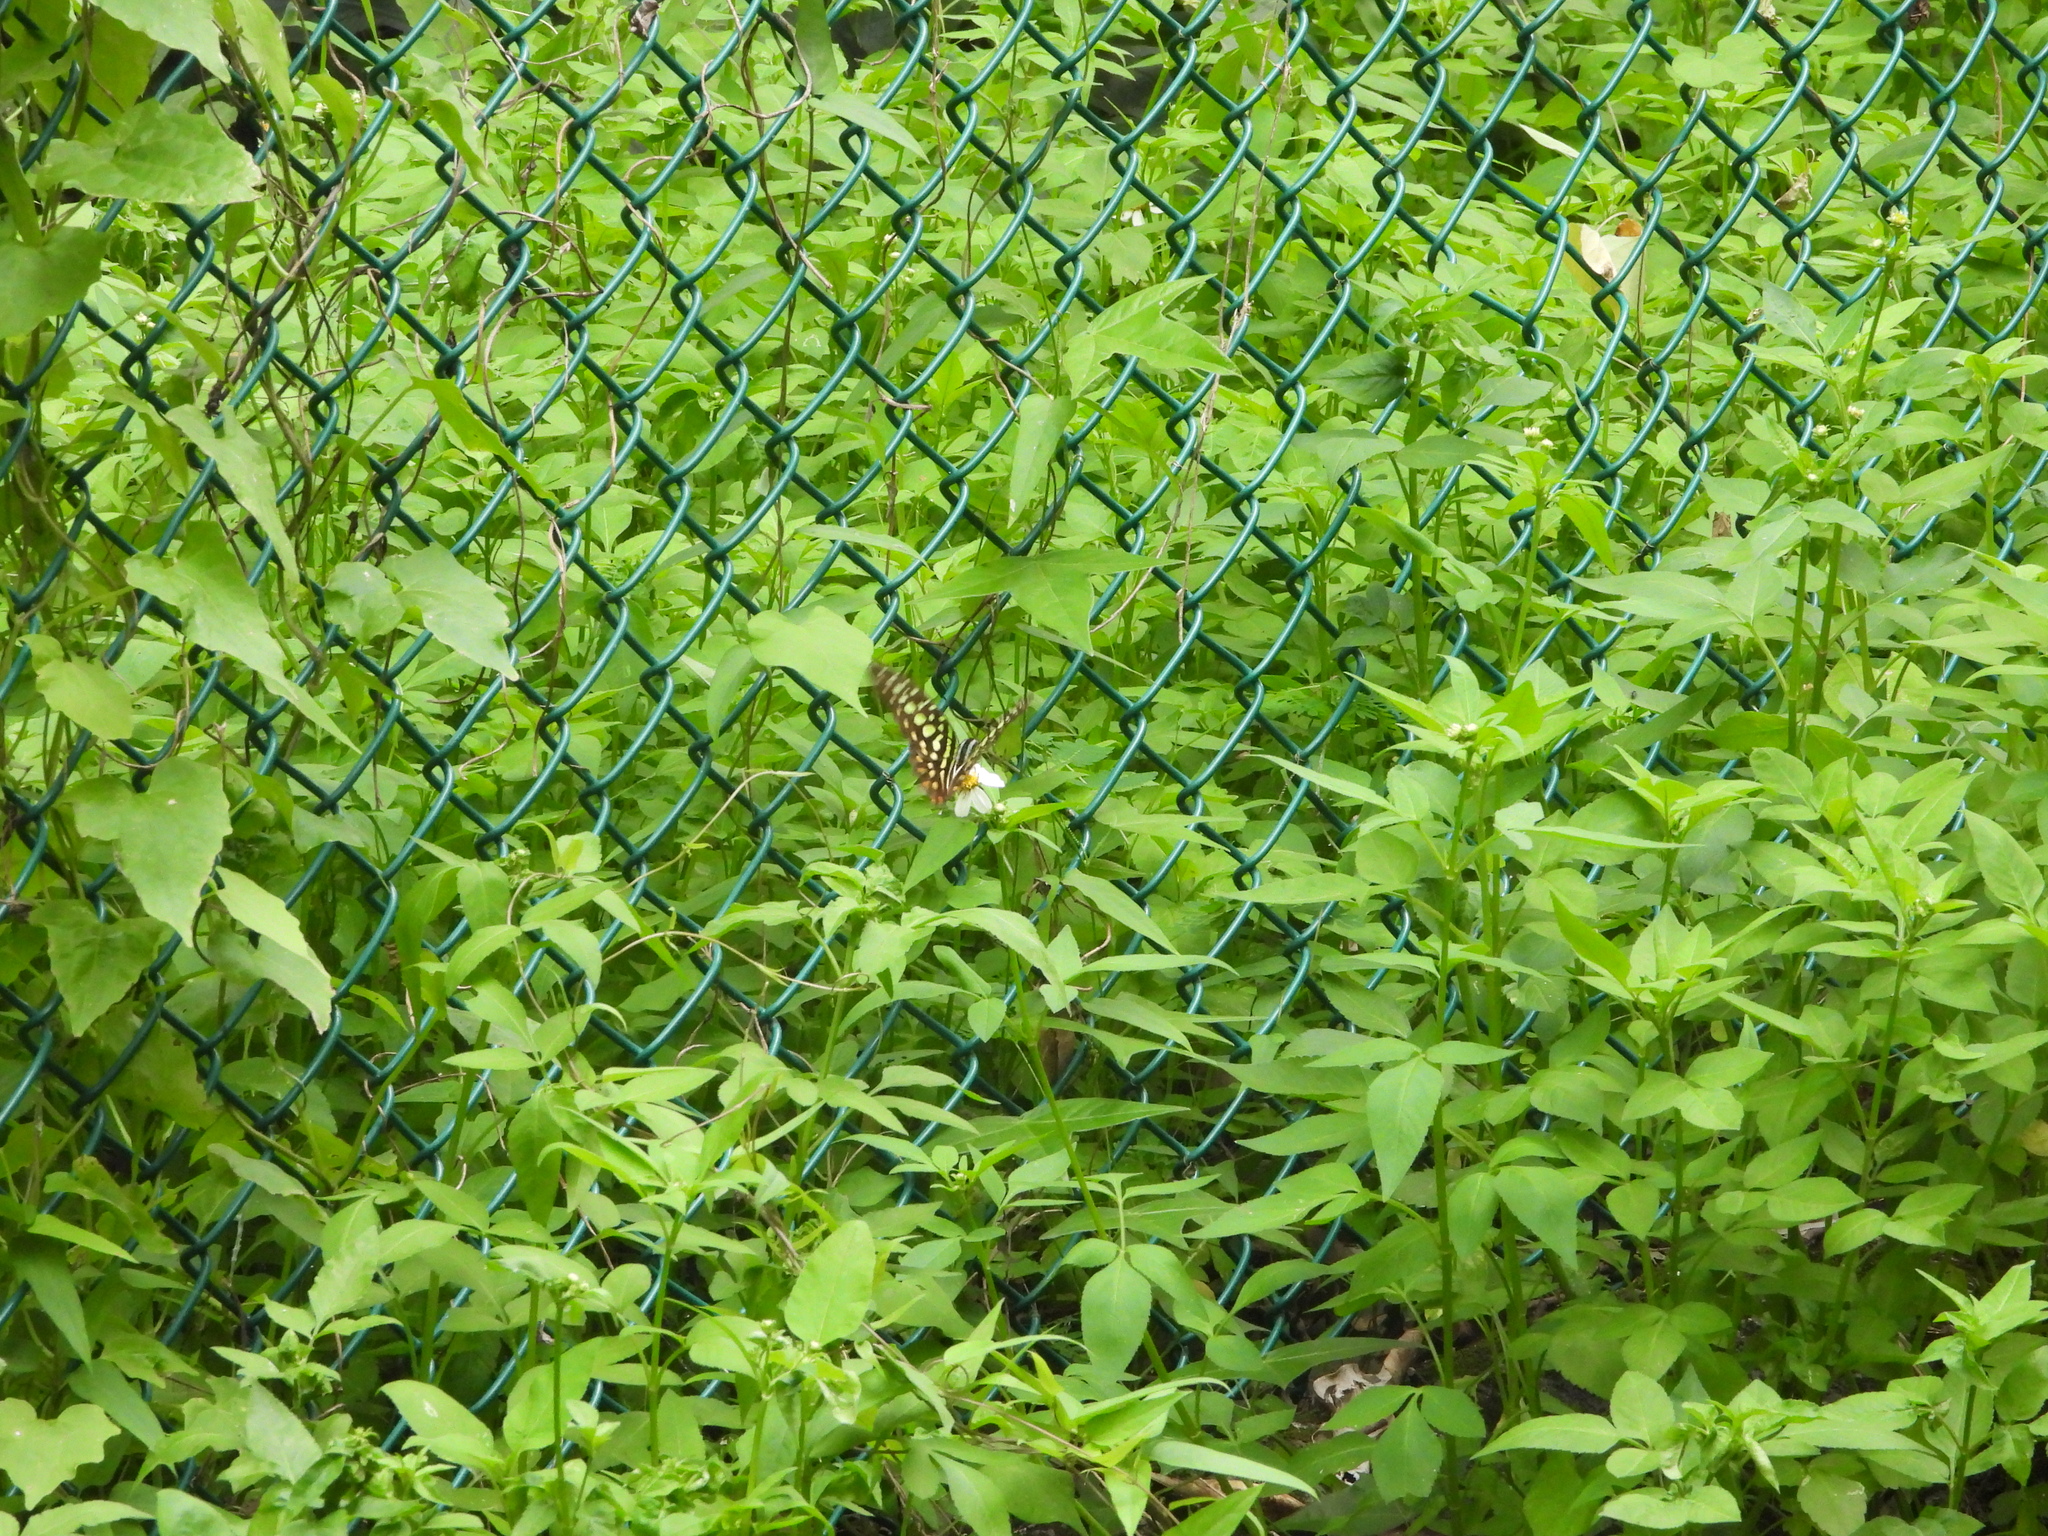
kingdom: Animalia
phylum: Arthropoda
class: Insecta
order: Lepidoptera
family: Papilionidae
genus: Graphium
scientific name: Graphium agamemnon
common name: Tailed jay
